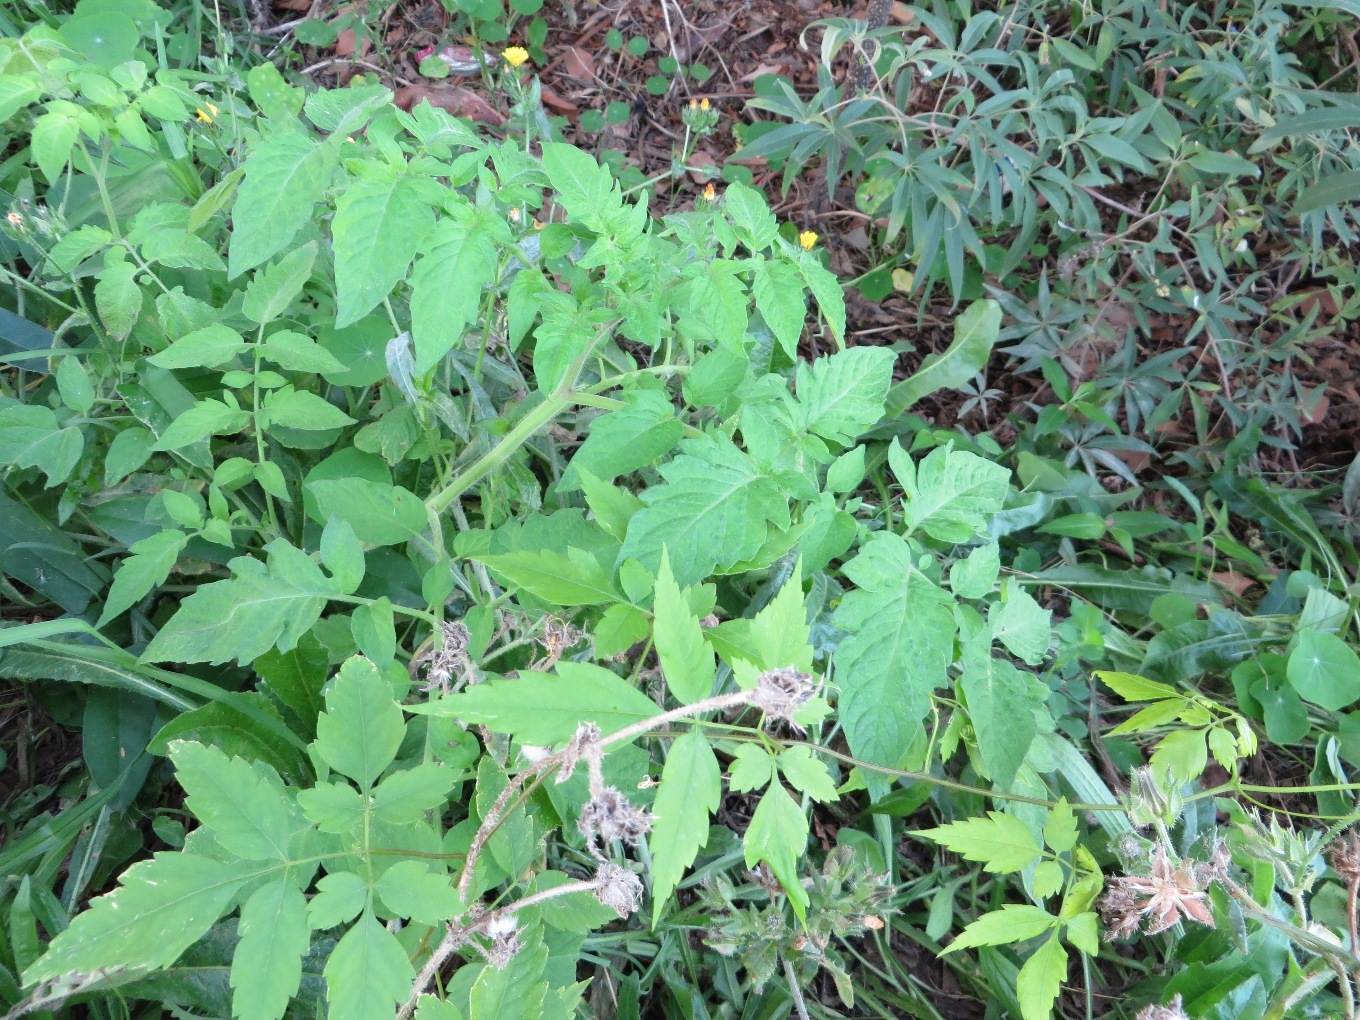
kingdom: Plantae
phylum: Tracheophyta
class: Magnoliopsida
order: Solanales
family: Solanaceae
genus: Solanum
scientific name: Solanum lycopersicum
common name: Garden tomato
